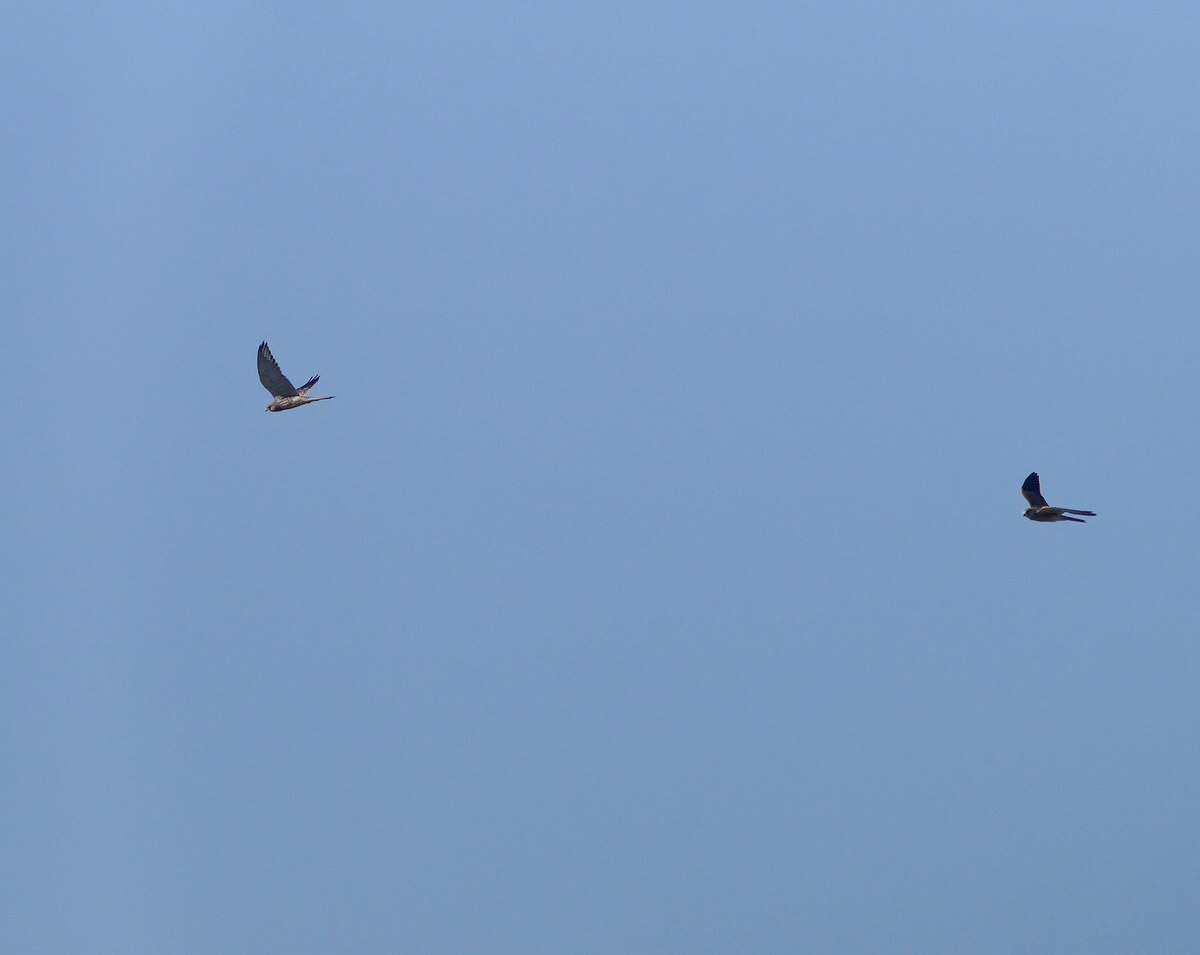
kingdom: Animalia
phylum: Chordata
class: Aves
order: Falconiformes
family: Falconidae
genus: Falco
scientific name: Falco tinnunculus
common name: Common kestrel
